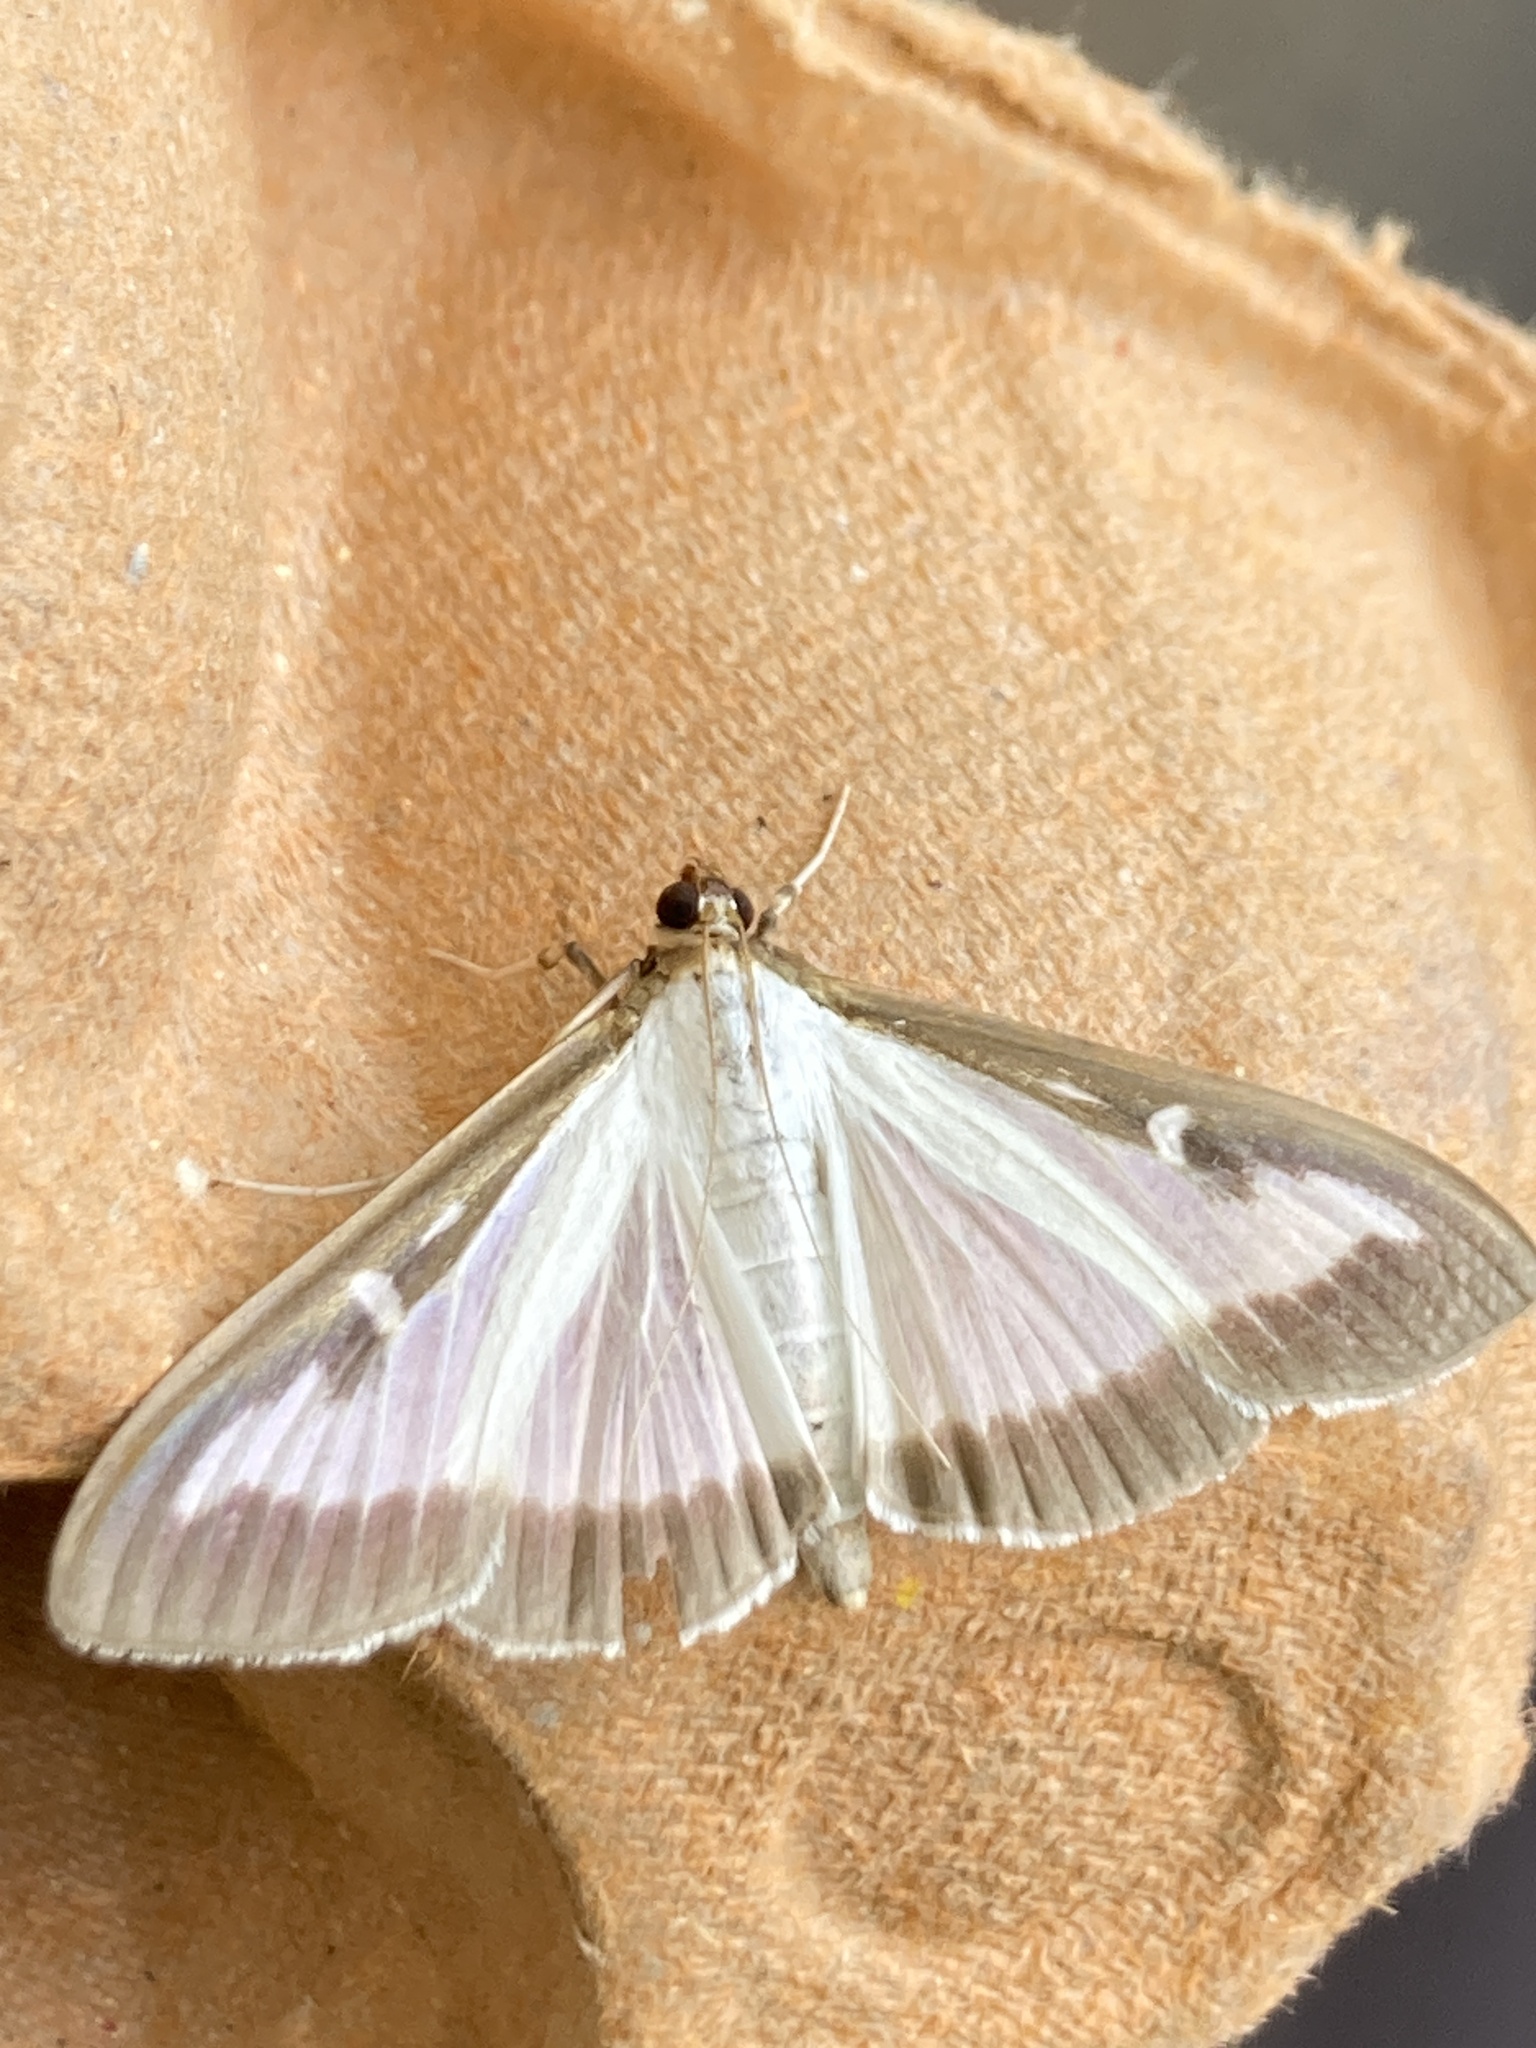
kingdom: Animalia
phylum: Arthropoda
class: Insecta
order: Lepidoptera
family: Crambidae
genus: Cydalima
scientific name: Cydalima perspectalis
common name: Box tree moth
